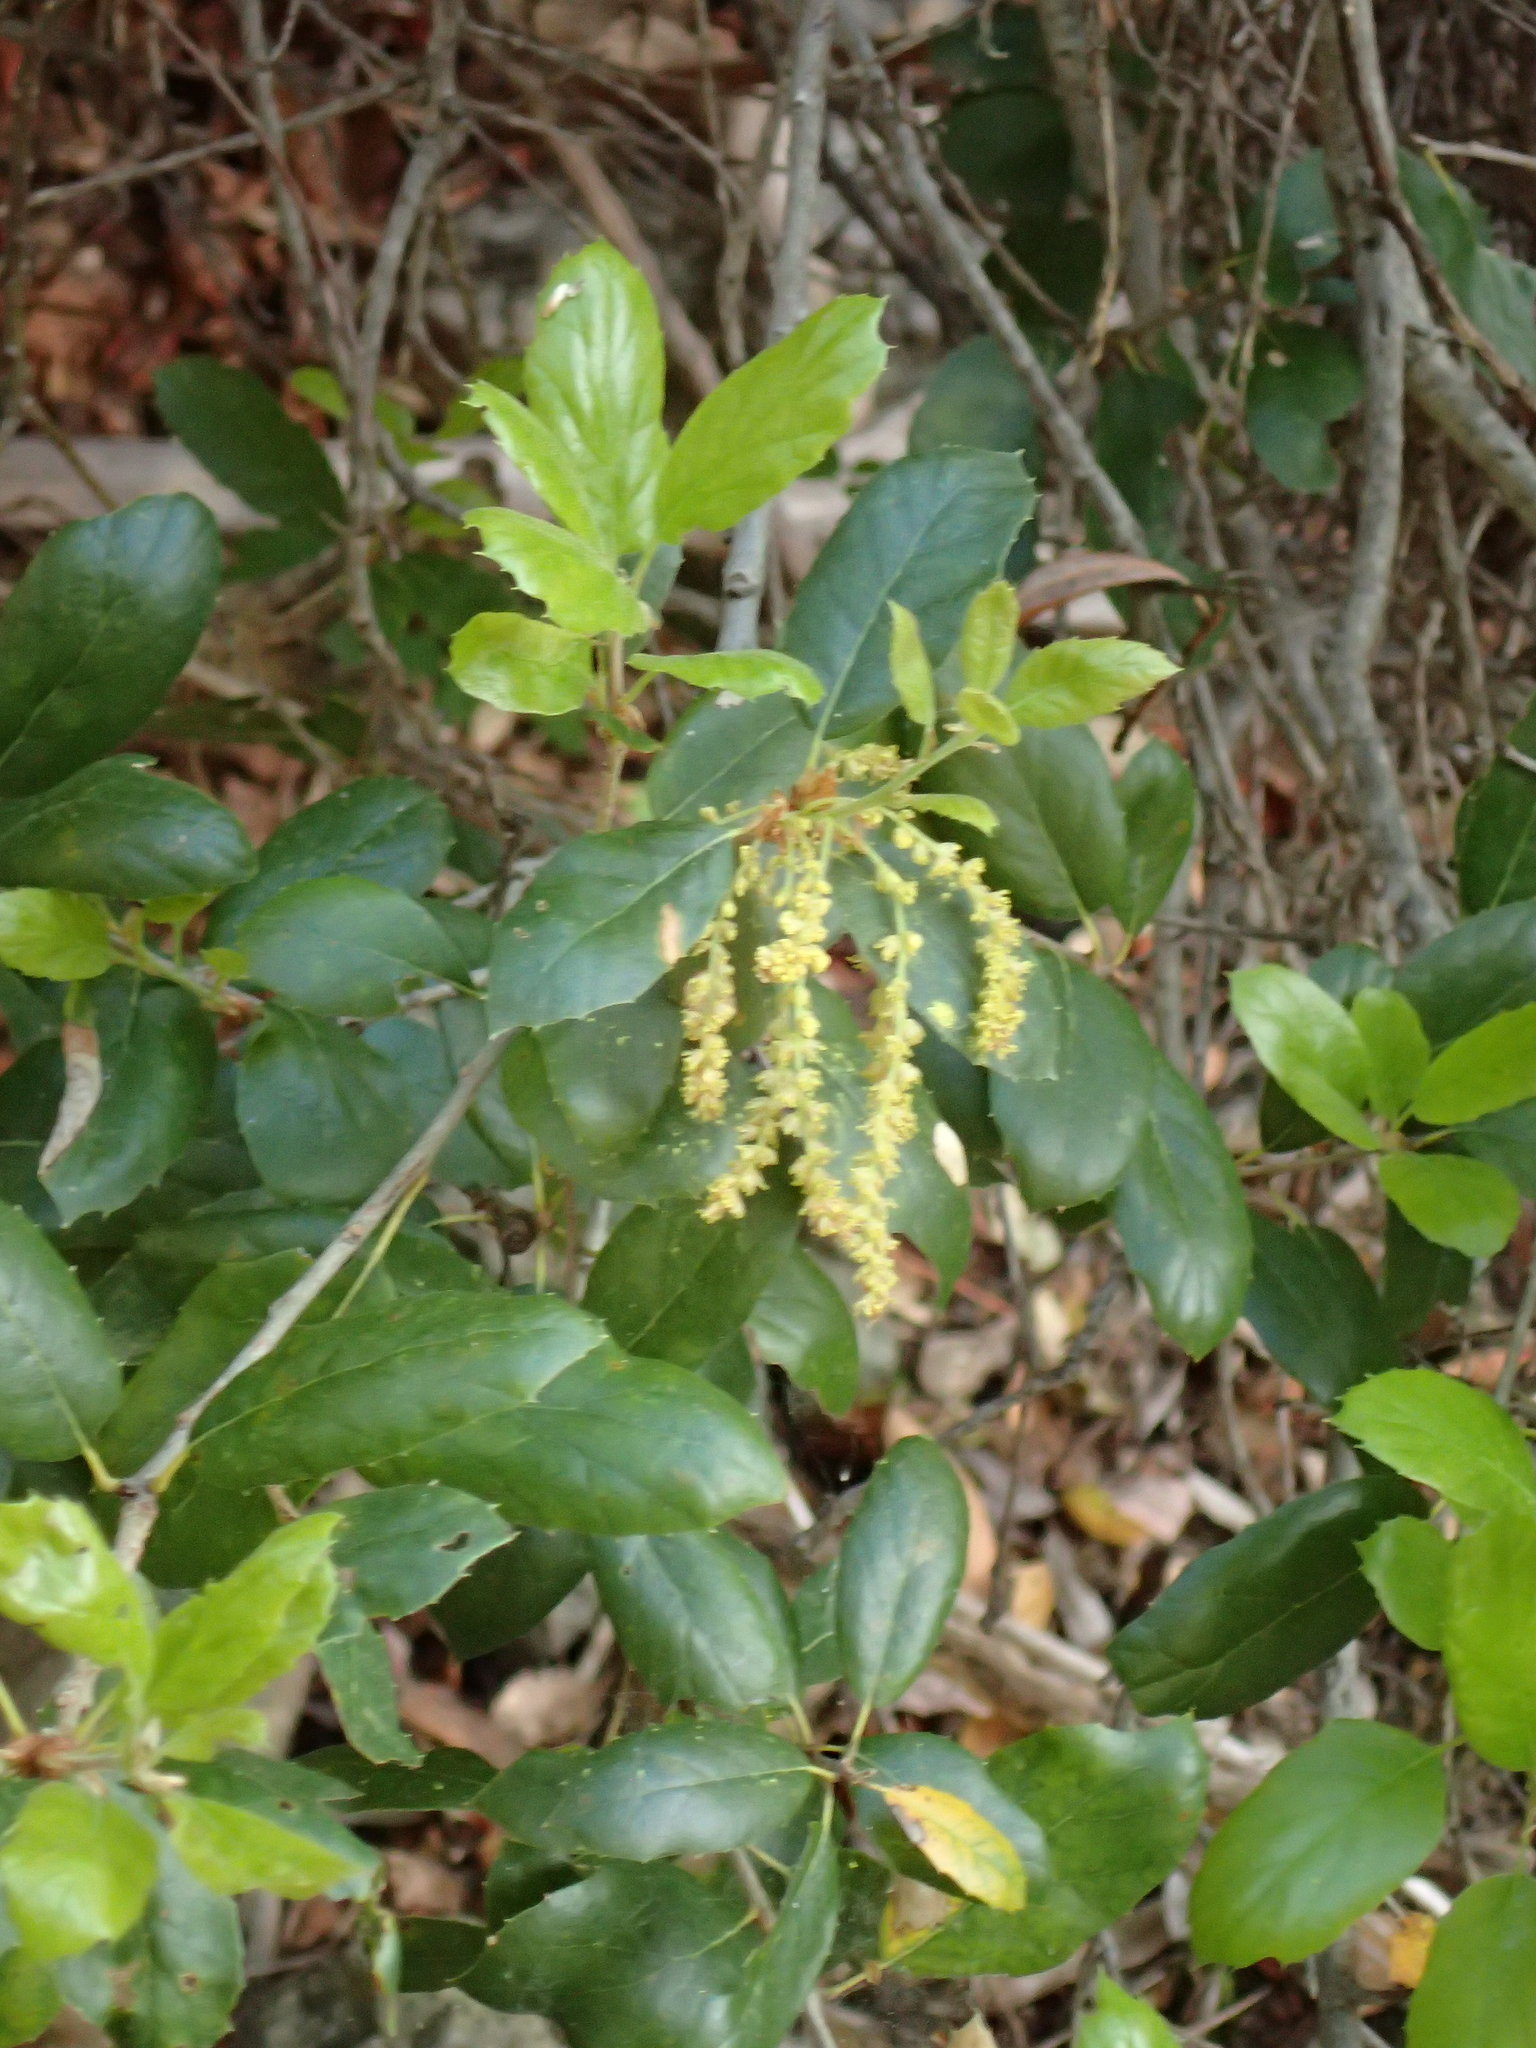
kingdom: Plantae
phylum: Tracheophyta
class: Magnoliopsida
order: Fagales
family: Fagaceae
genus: Quercus
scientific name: Quercus agrifolia
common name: California live oak
